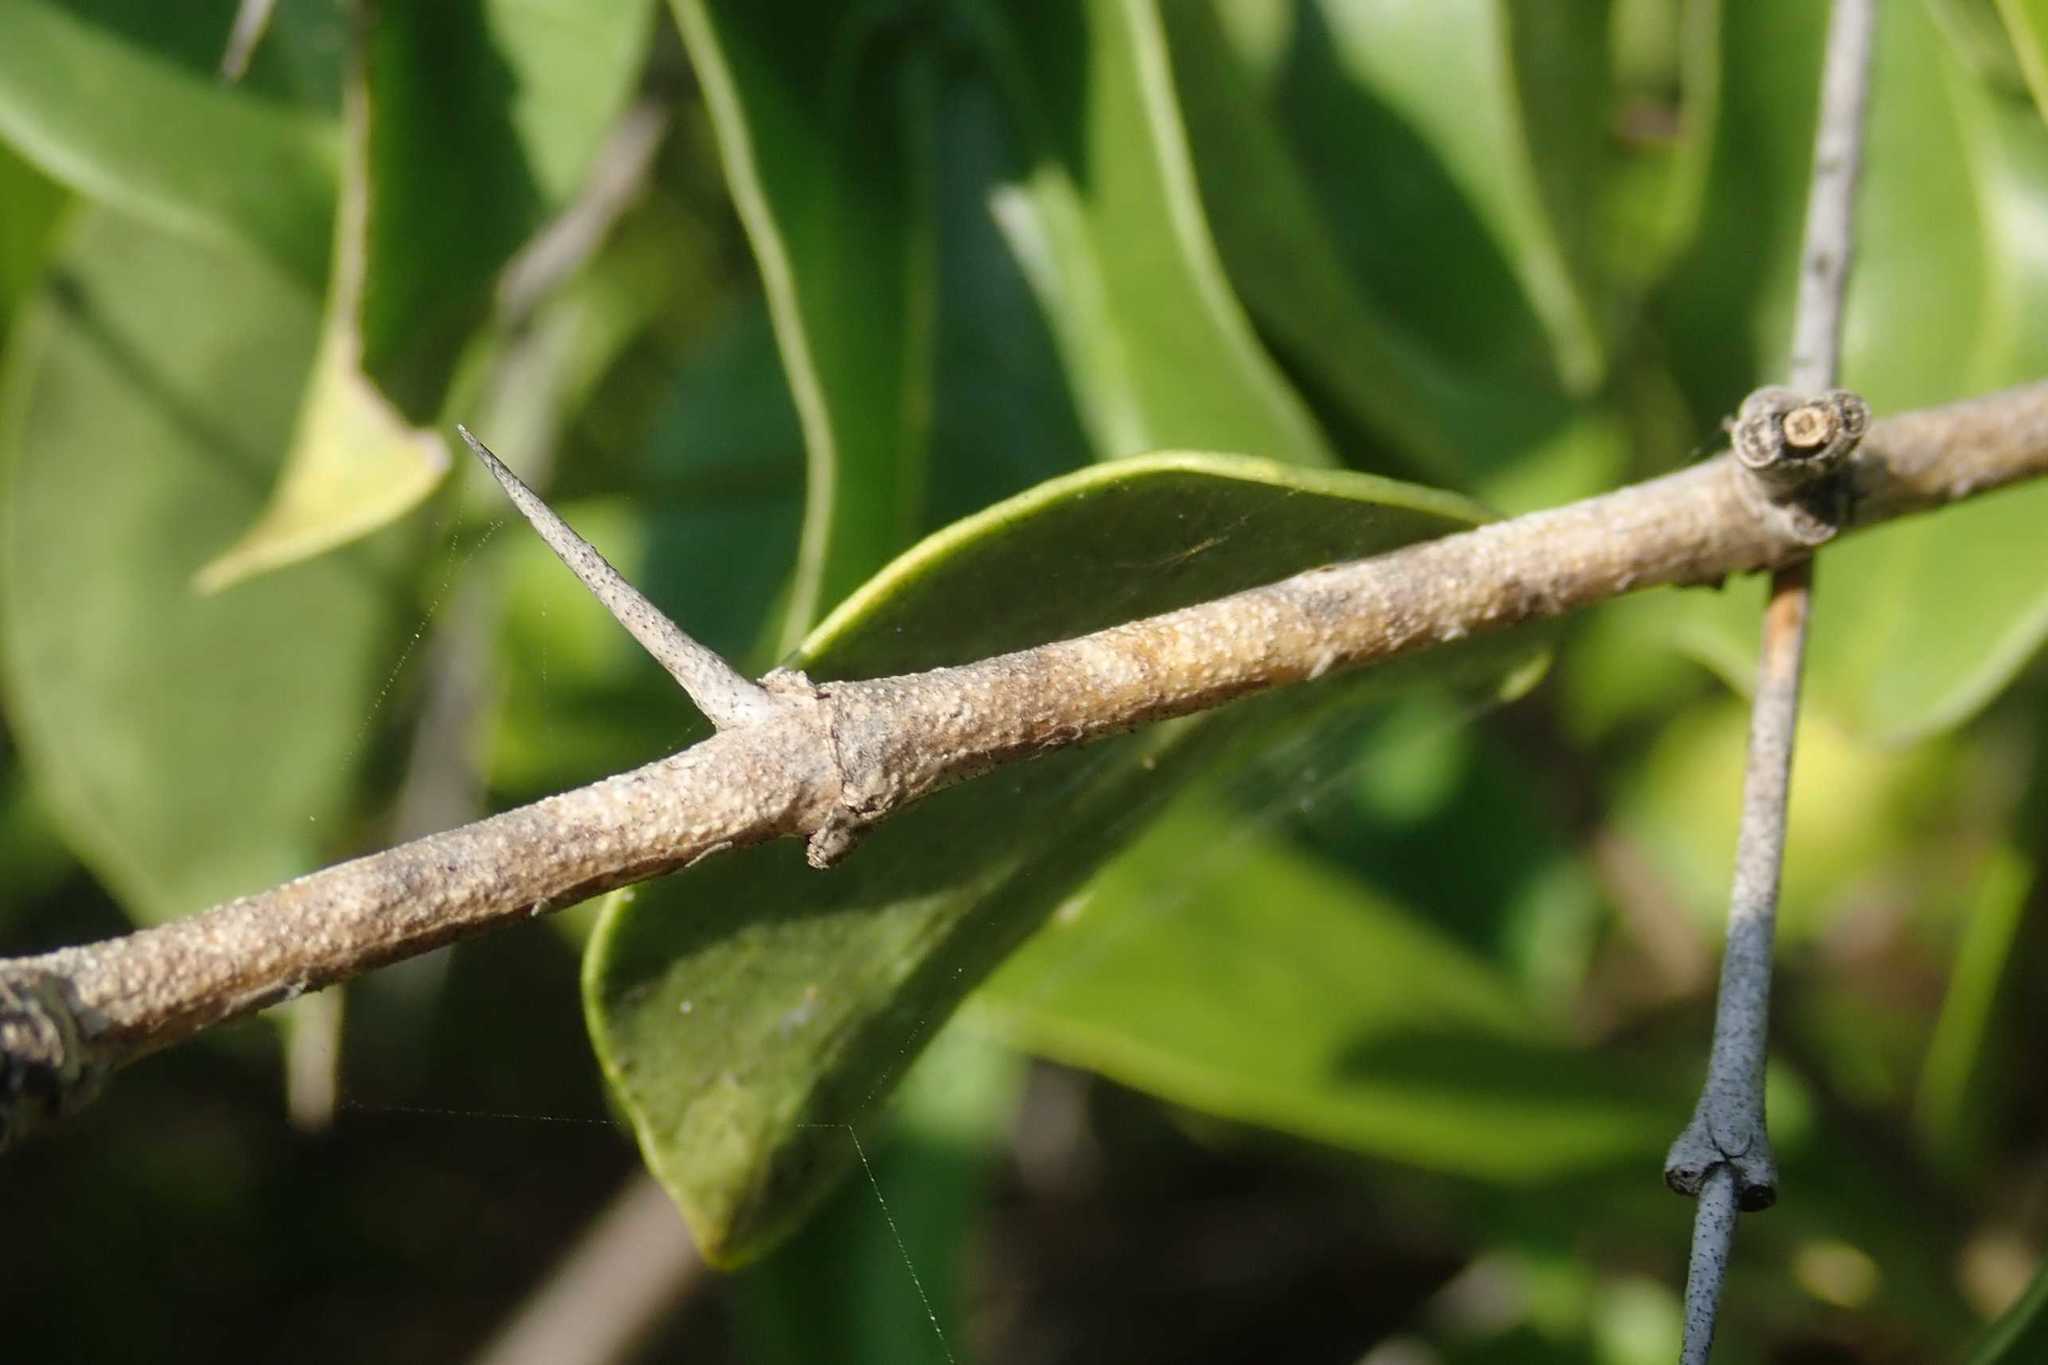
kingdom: Plantae
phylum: Tracheophyta
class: Magnoliopsida
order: Gentianales
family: Loganiaceae
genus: Strychnos
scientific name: Strychnos spinosa
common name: Natal orange
